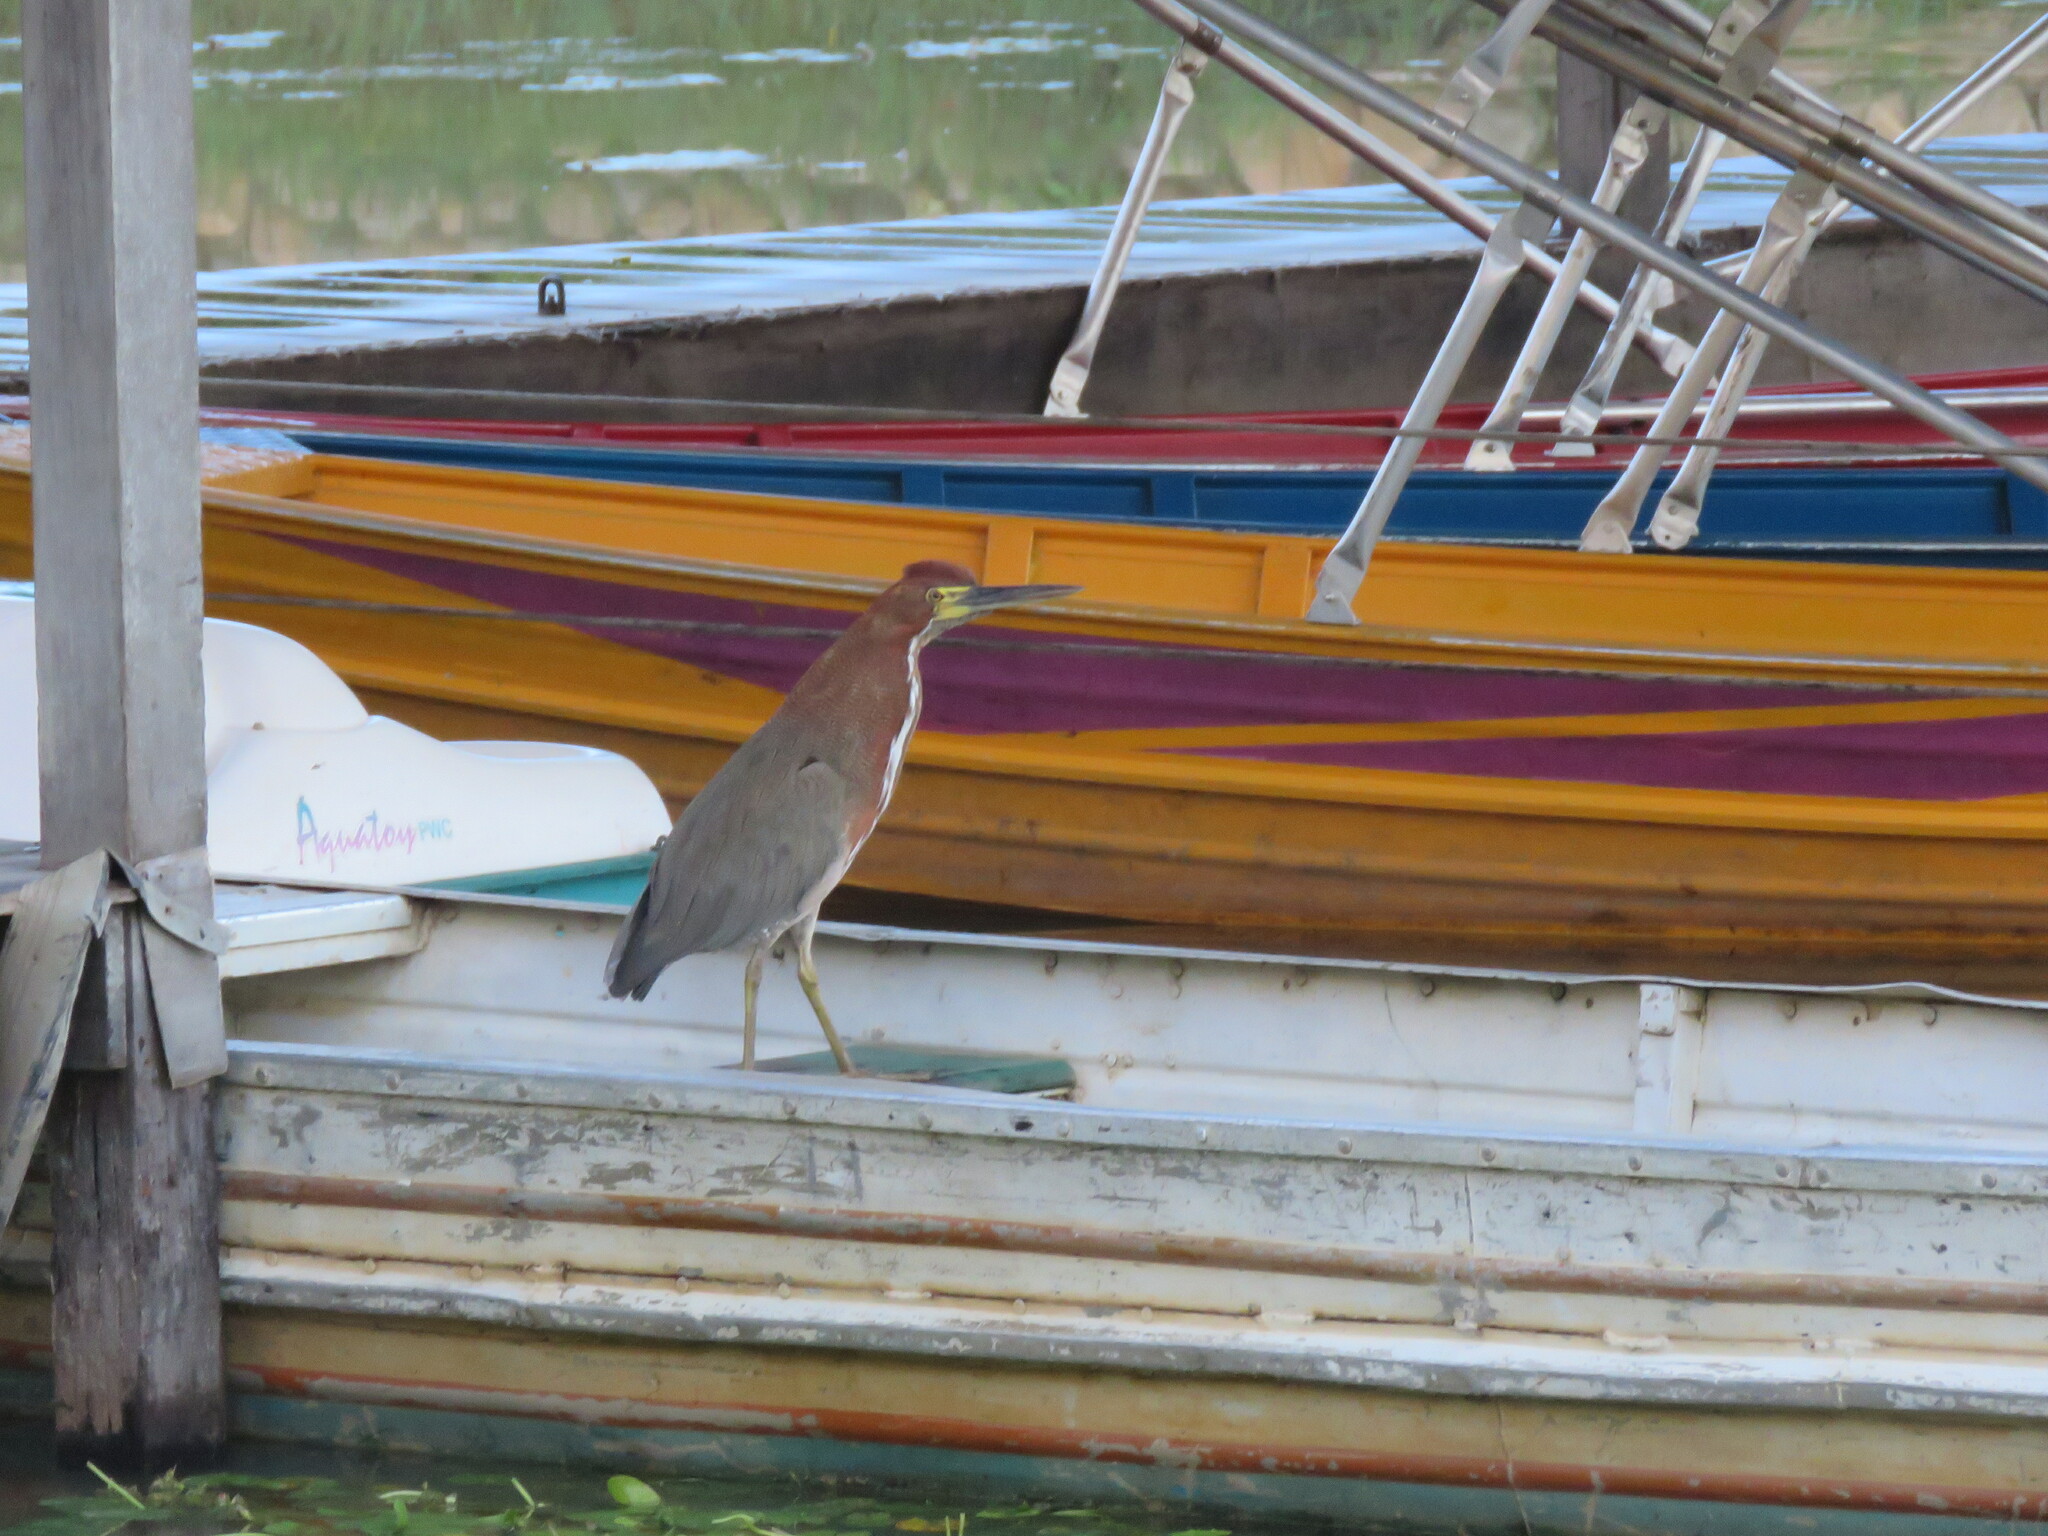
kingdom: Animalia
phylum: Chordata
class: Aves
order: Pelecaniformes
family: Ardeidae
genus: Tigrisoma
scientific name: Tigrisoma lineatum
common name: Rufescent tiger-heron
